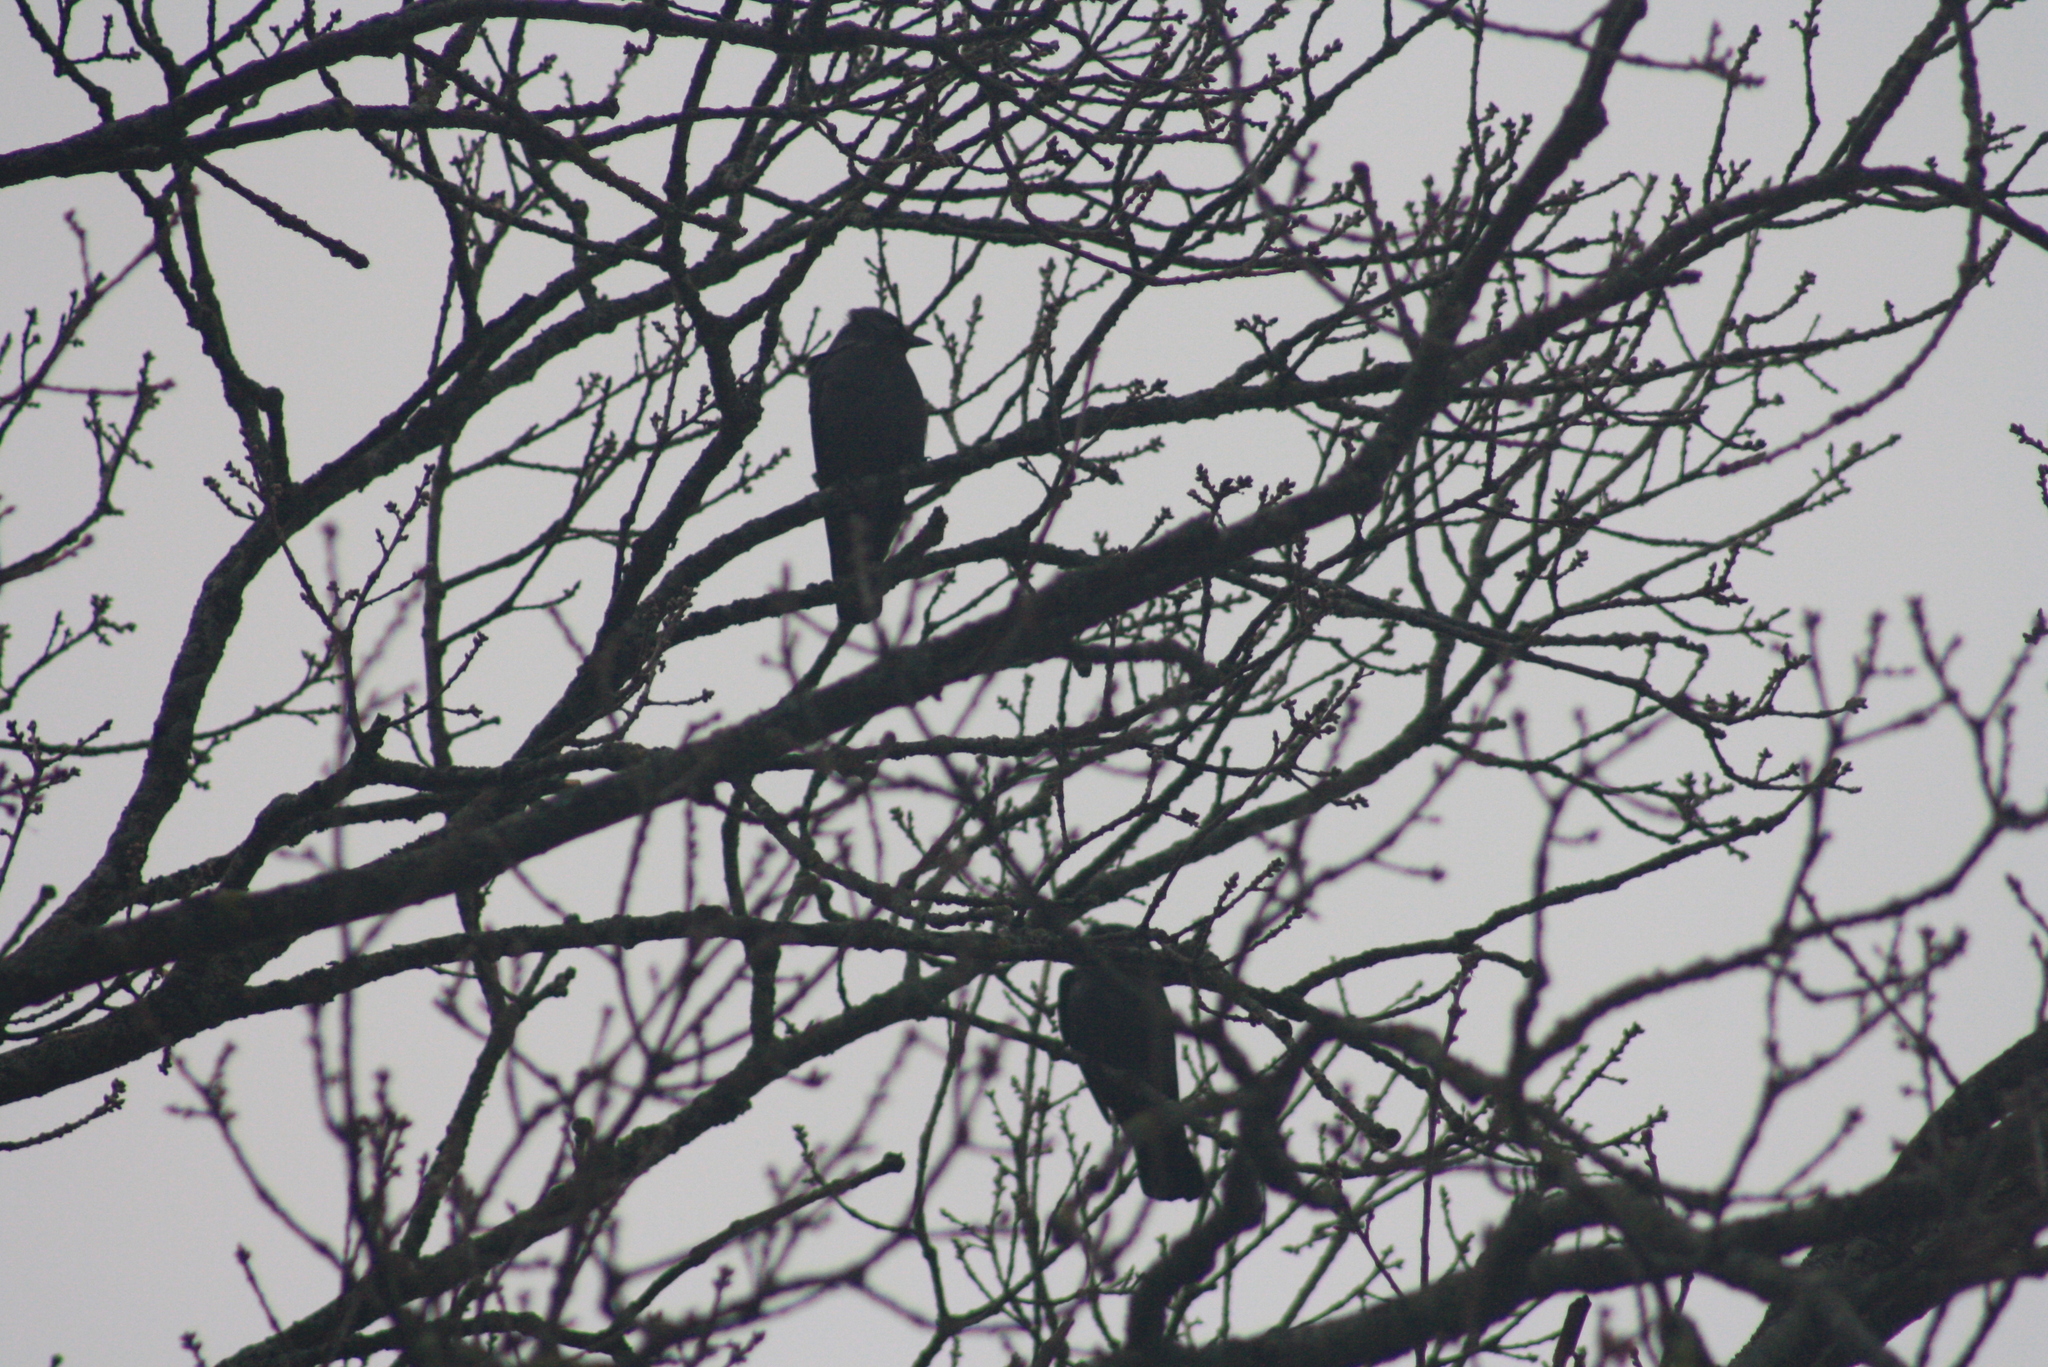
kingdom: Animalia
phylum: Chordata
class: Aves
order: Passeriformes
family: Corvidae
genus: Coloeus
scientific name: Coloeus monedula
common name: Western jackdaw
